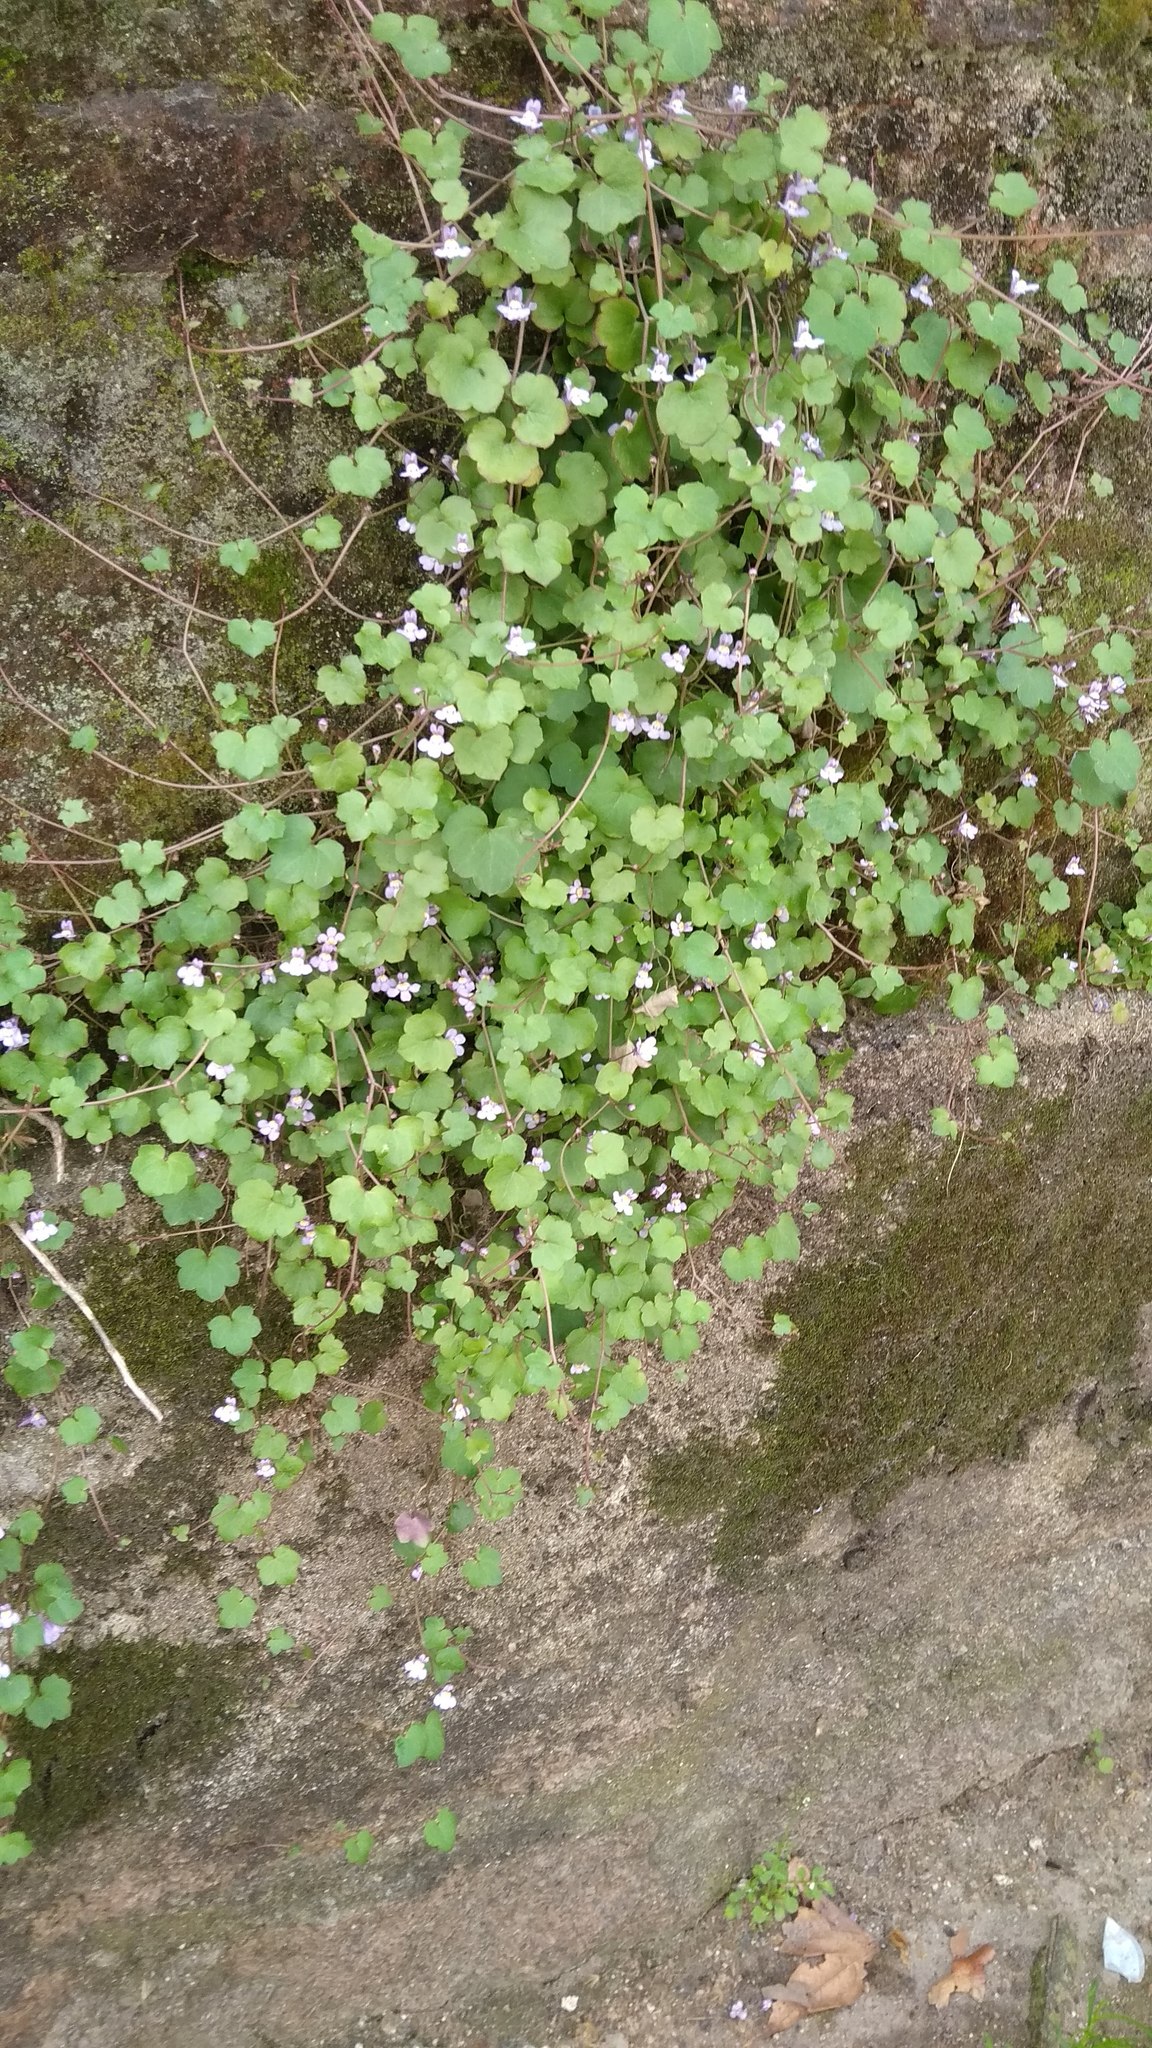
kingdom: Plantae
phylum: Tracheophyta
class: Magnoliopsida
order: Lamiales
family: Plantaginaceae
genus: Cymbalaria
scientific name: Cymbalaria muralis
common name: Ivy-leaved toadflax
